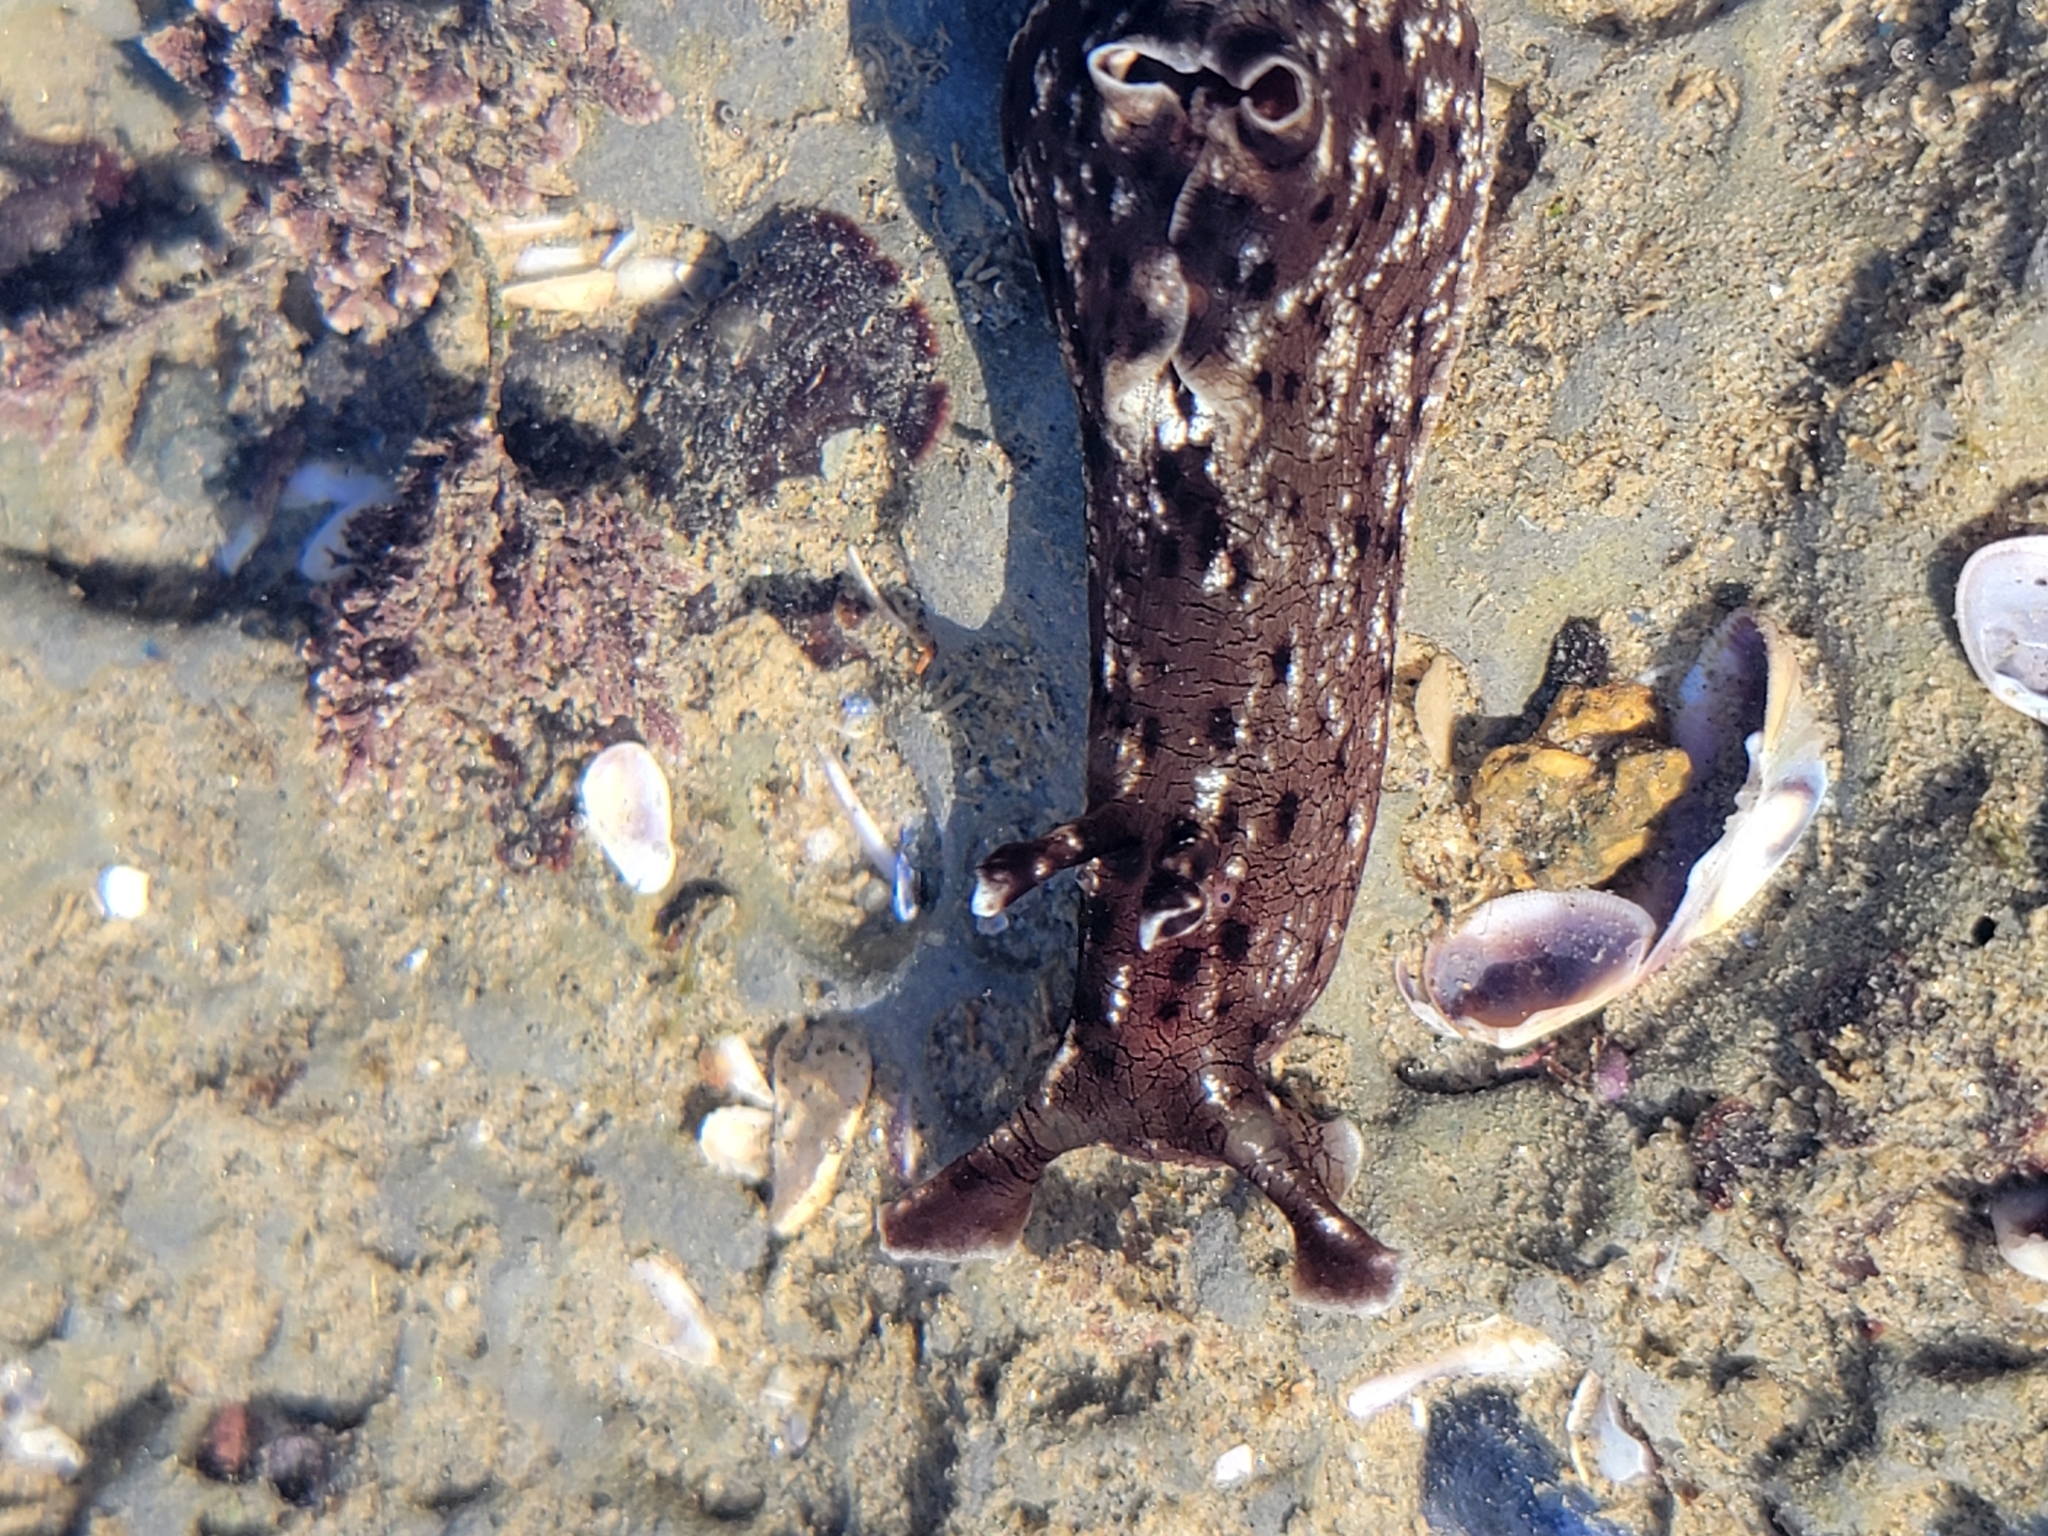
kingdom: Animalia
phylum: Mollusca
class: Gastropoda
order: Aplysiida
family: Aplysiidae
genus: Aplysia
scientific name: Aplysia californica
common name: California seahare
